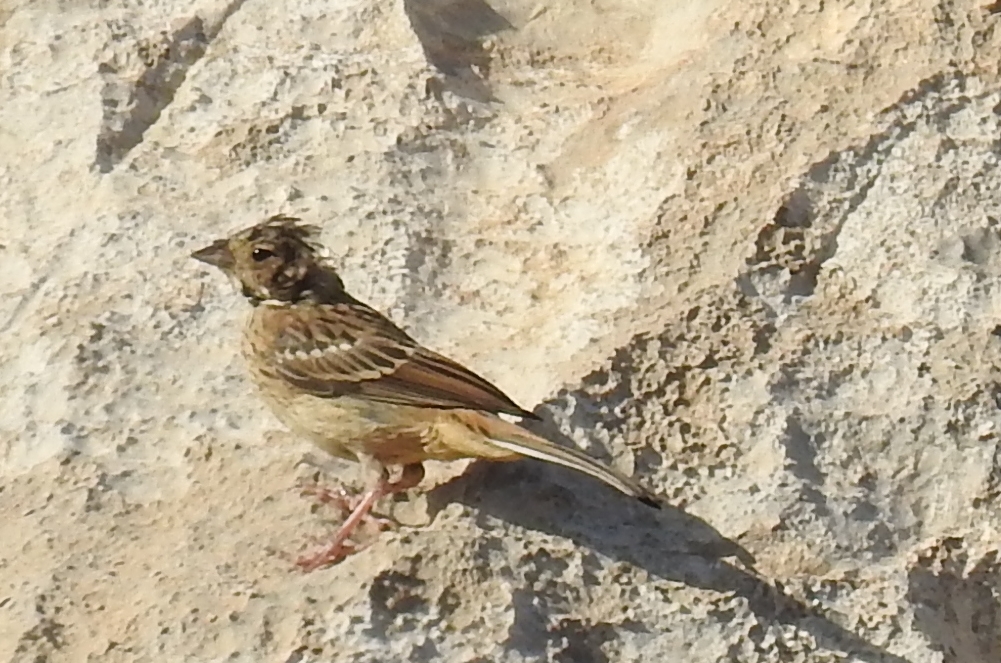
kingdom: Animalia
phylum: Chordata
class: Aves
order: Passeriformes
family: Emberizidae
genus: Emberiza
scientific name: Emberiza cirlus
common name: Cirl bunting
